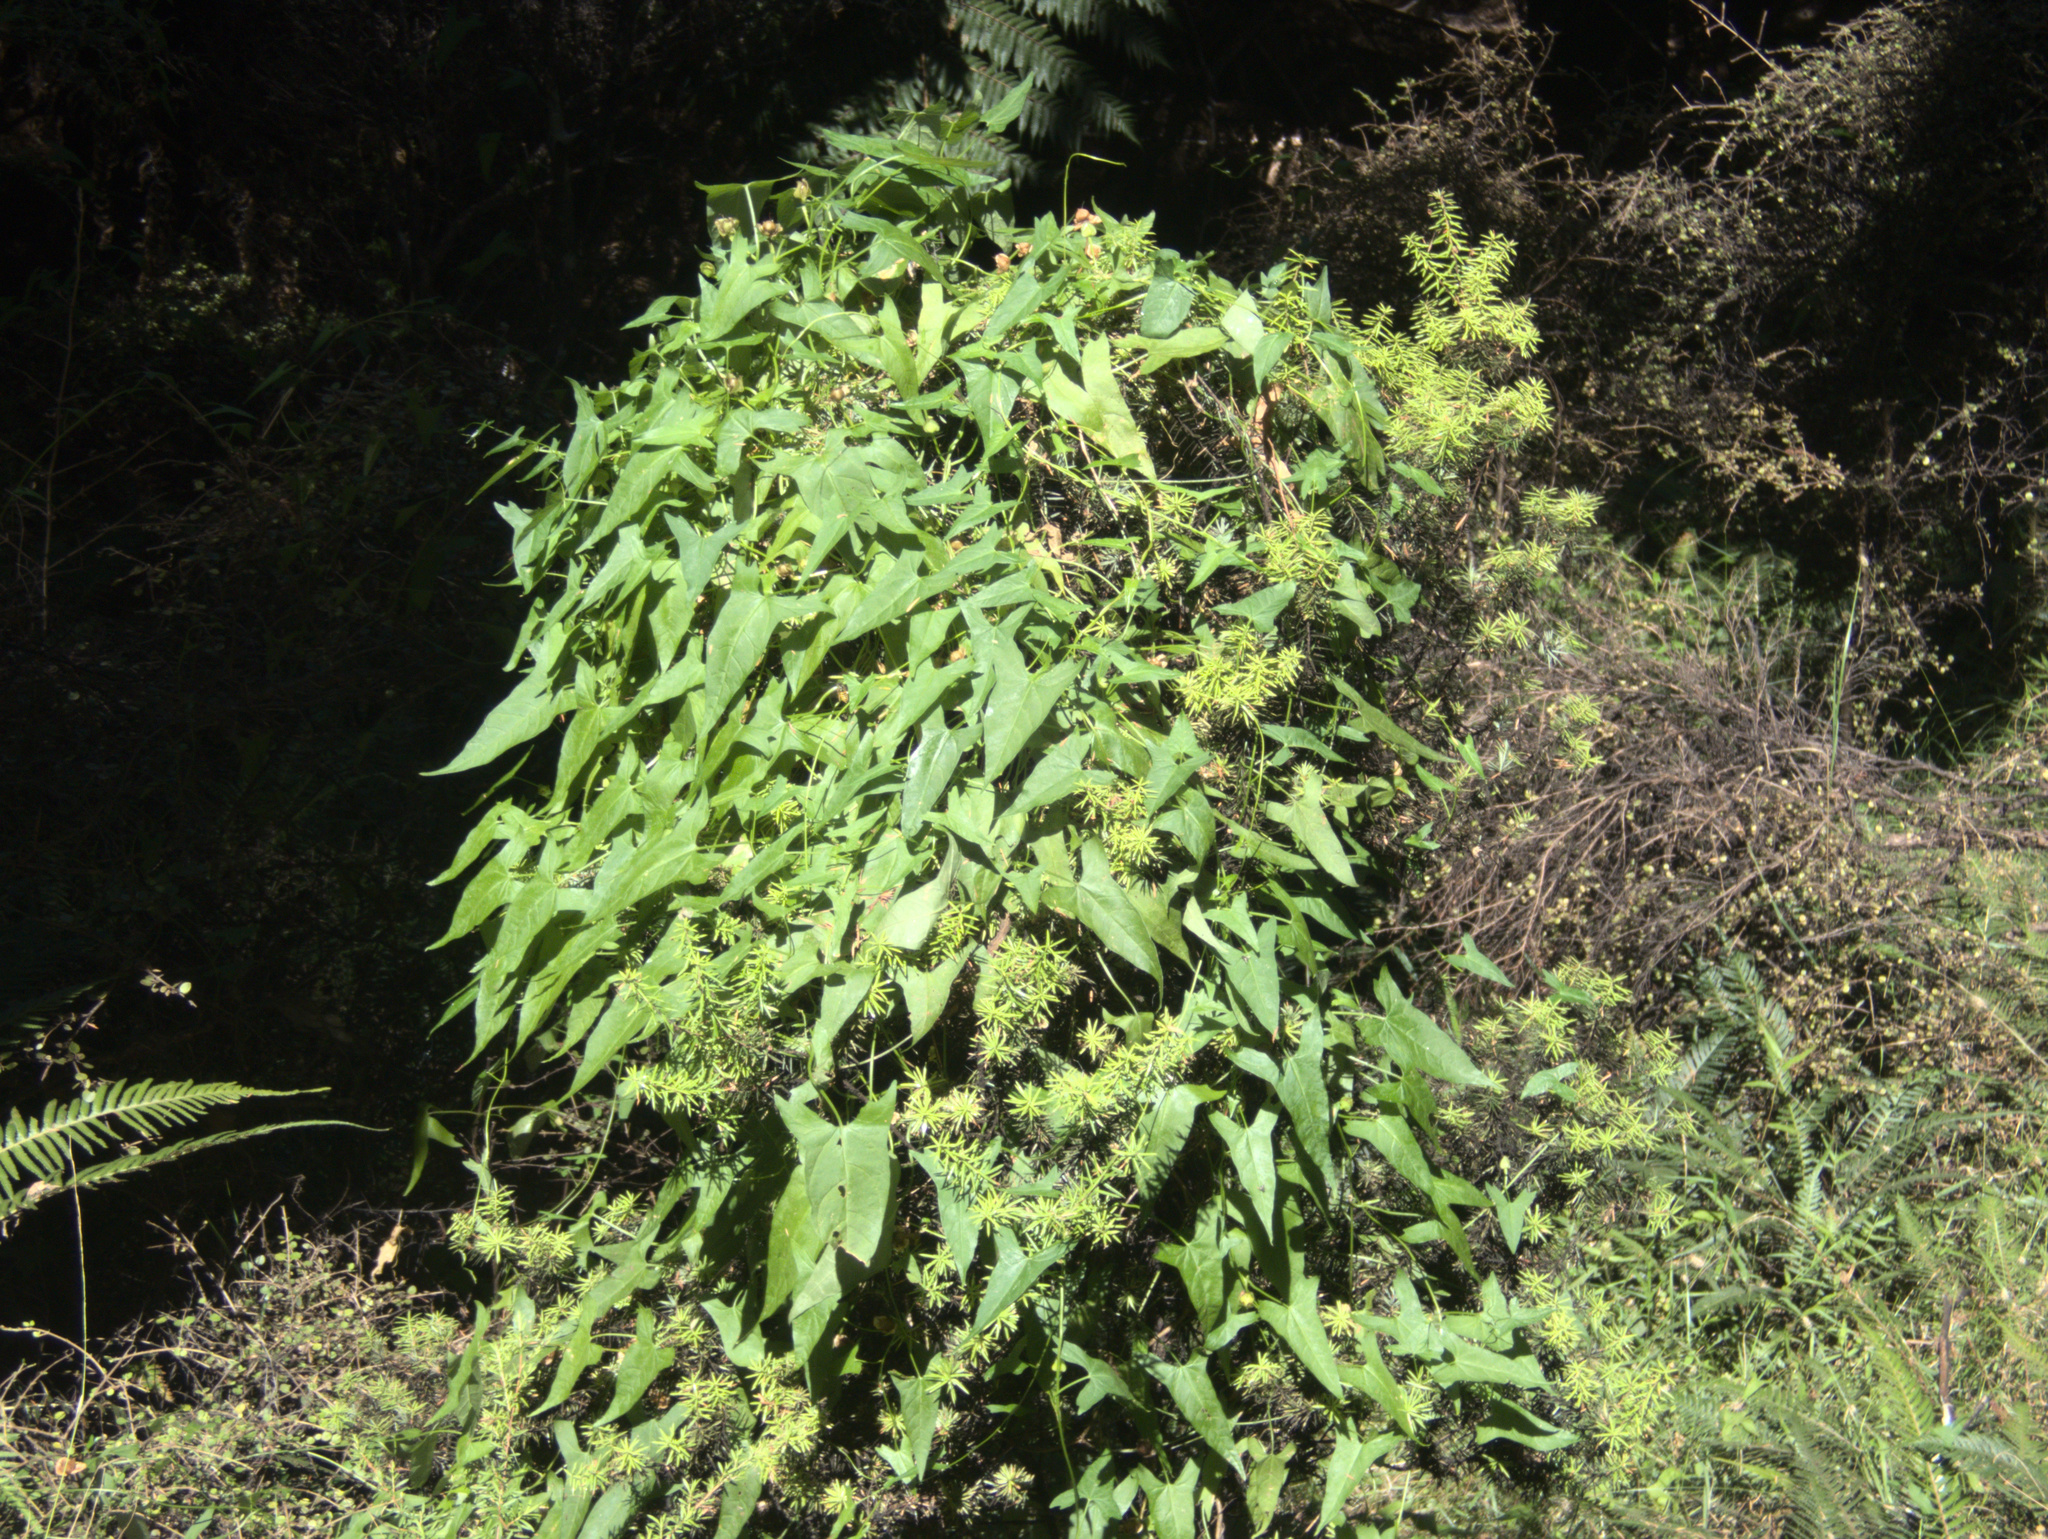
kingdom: Plantae
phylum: Tracheophyta
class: Magnoliopsida
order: Solanales
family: Convolvulaceae
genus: Calystegia
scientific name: Calystegia marginata
